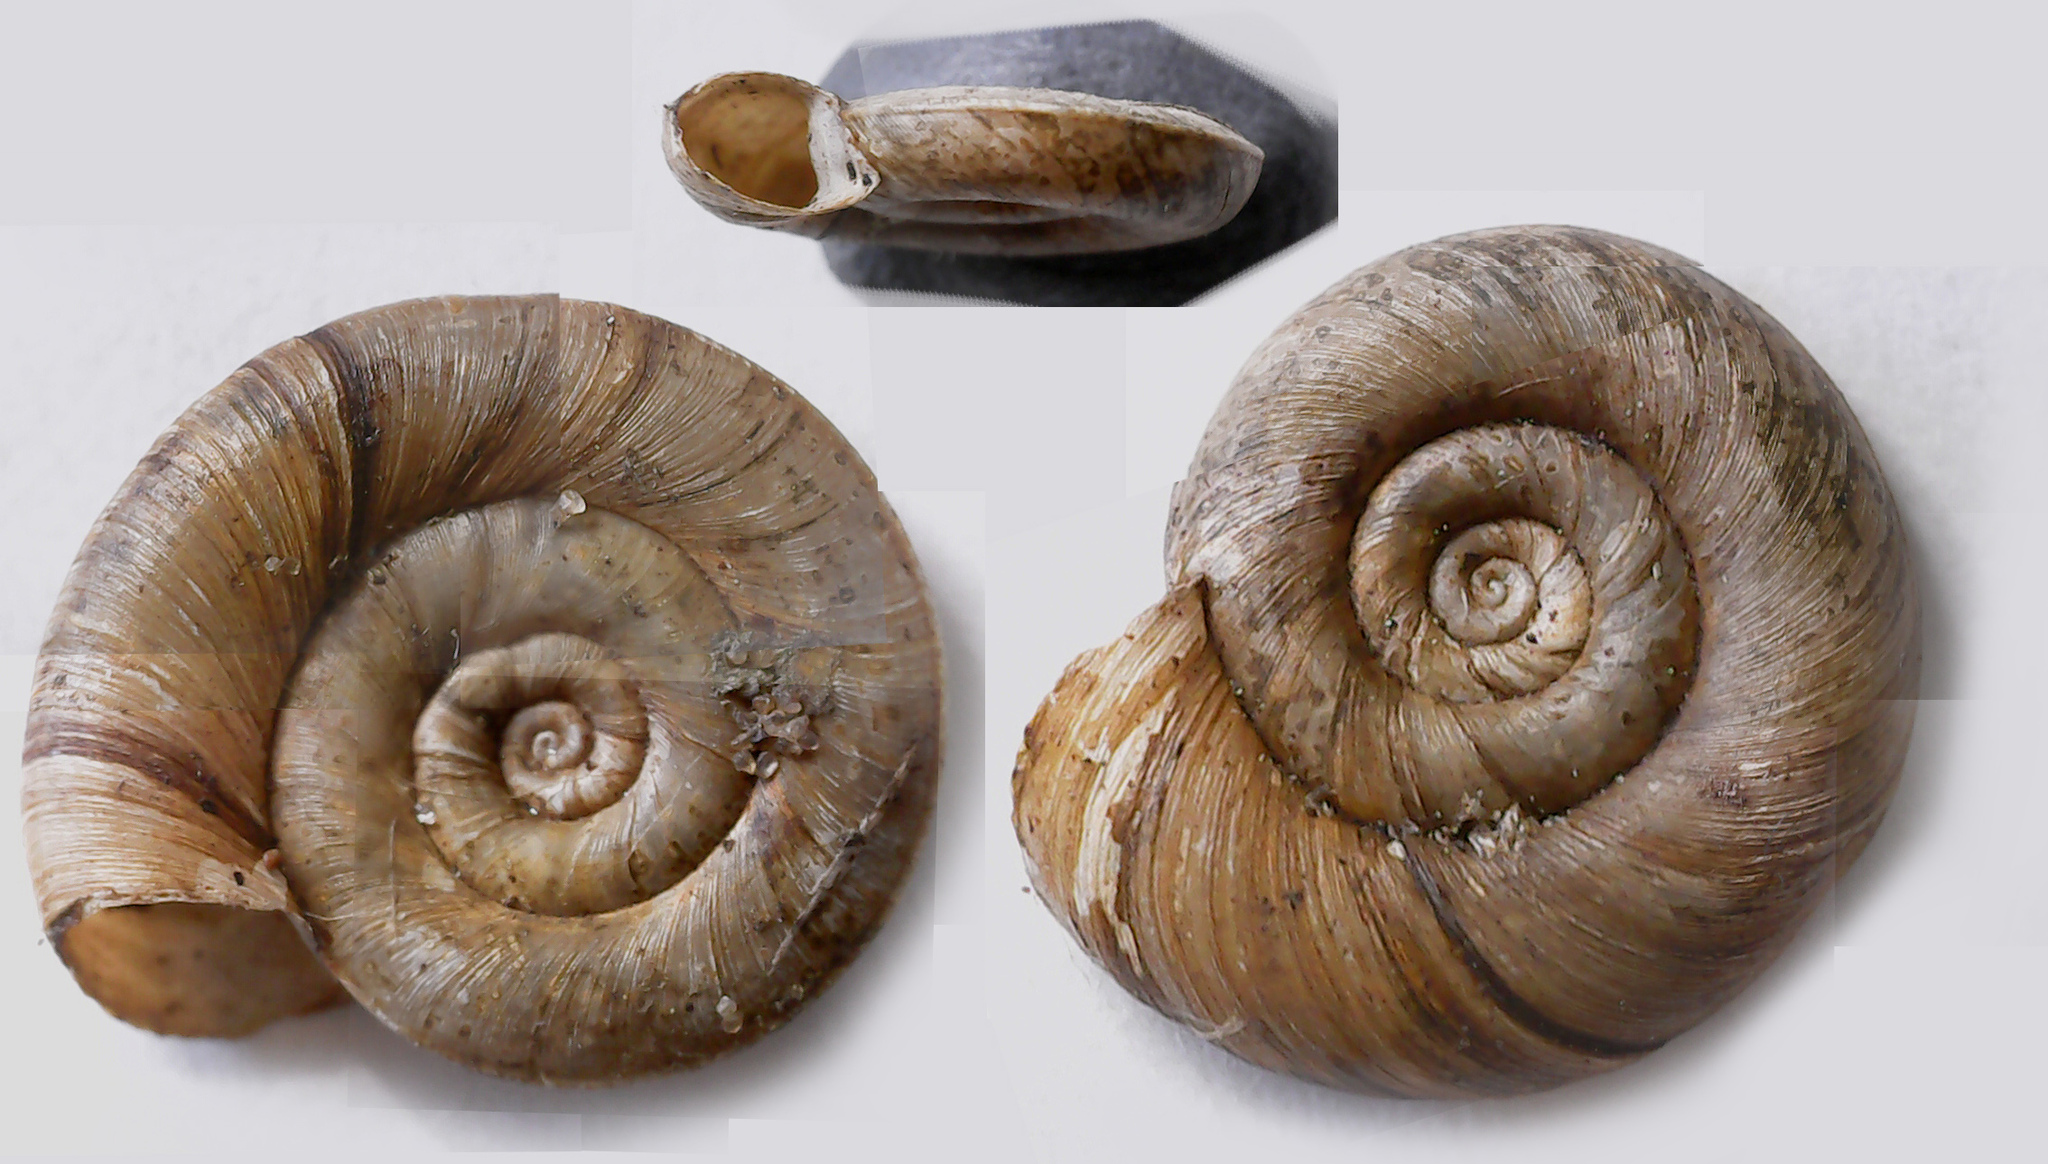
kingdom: Animalia
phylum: Mollusca
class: Gastropoda
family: Planorbidae
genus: Planorbis
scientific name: Planorbis planorbis
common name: Margined ramshorn
